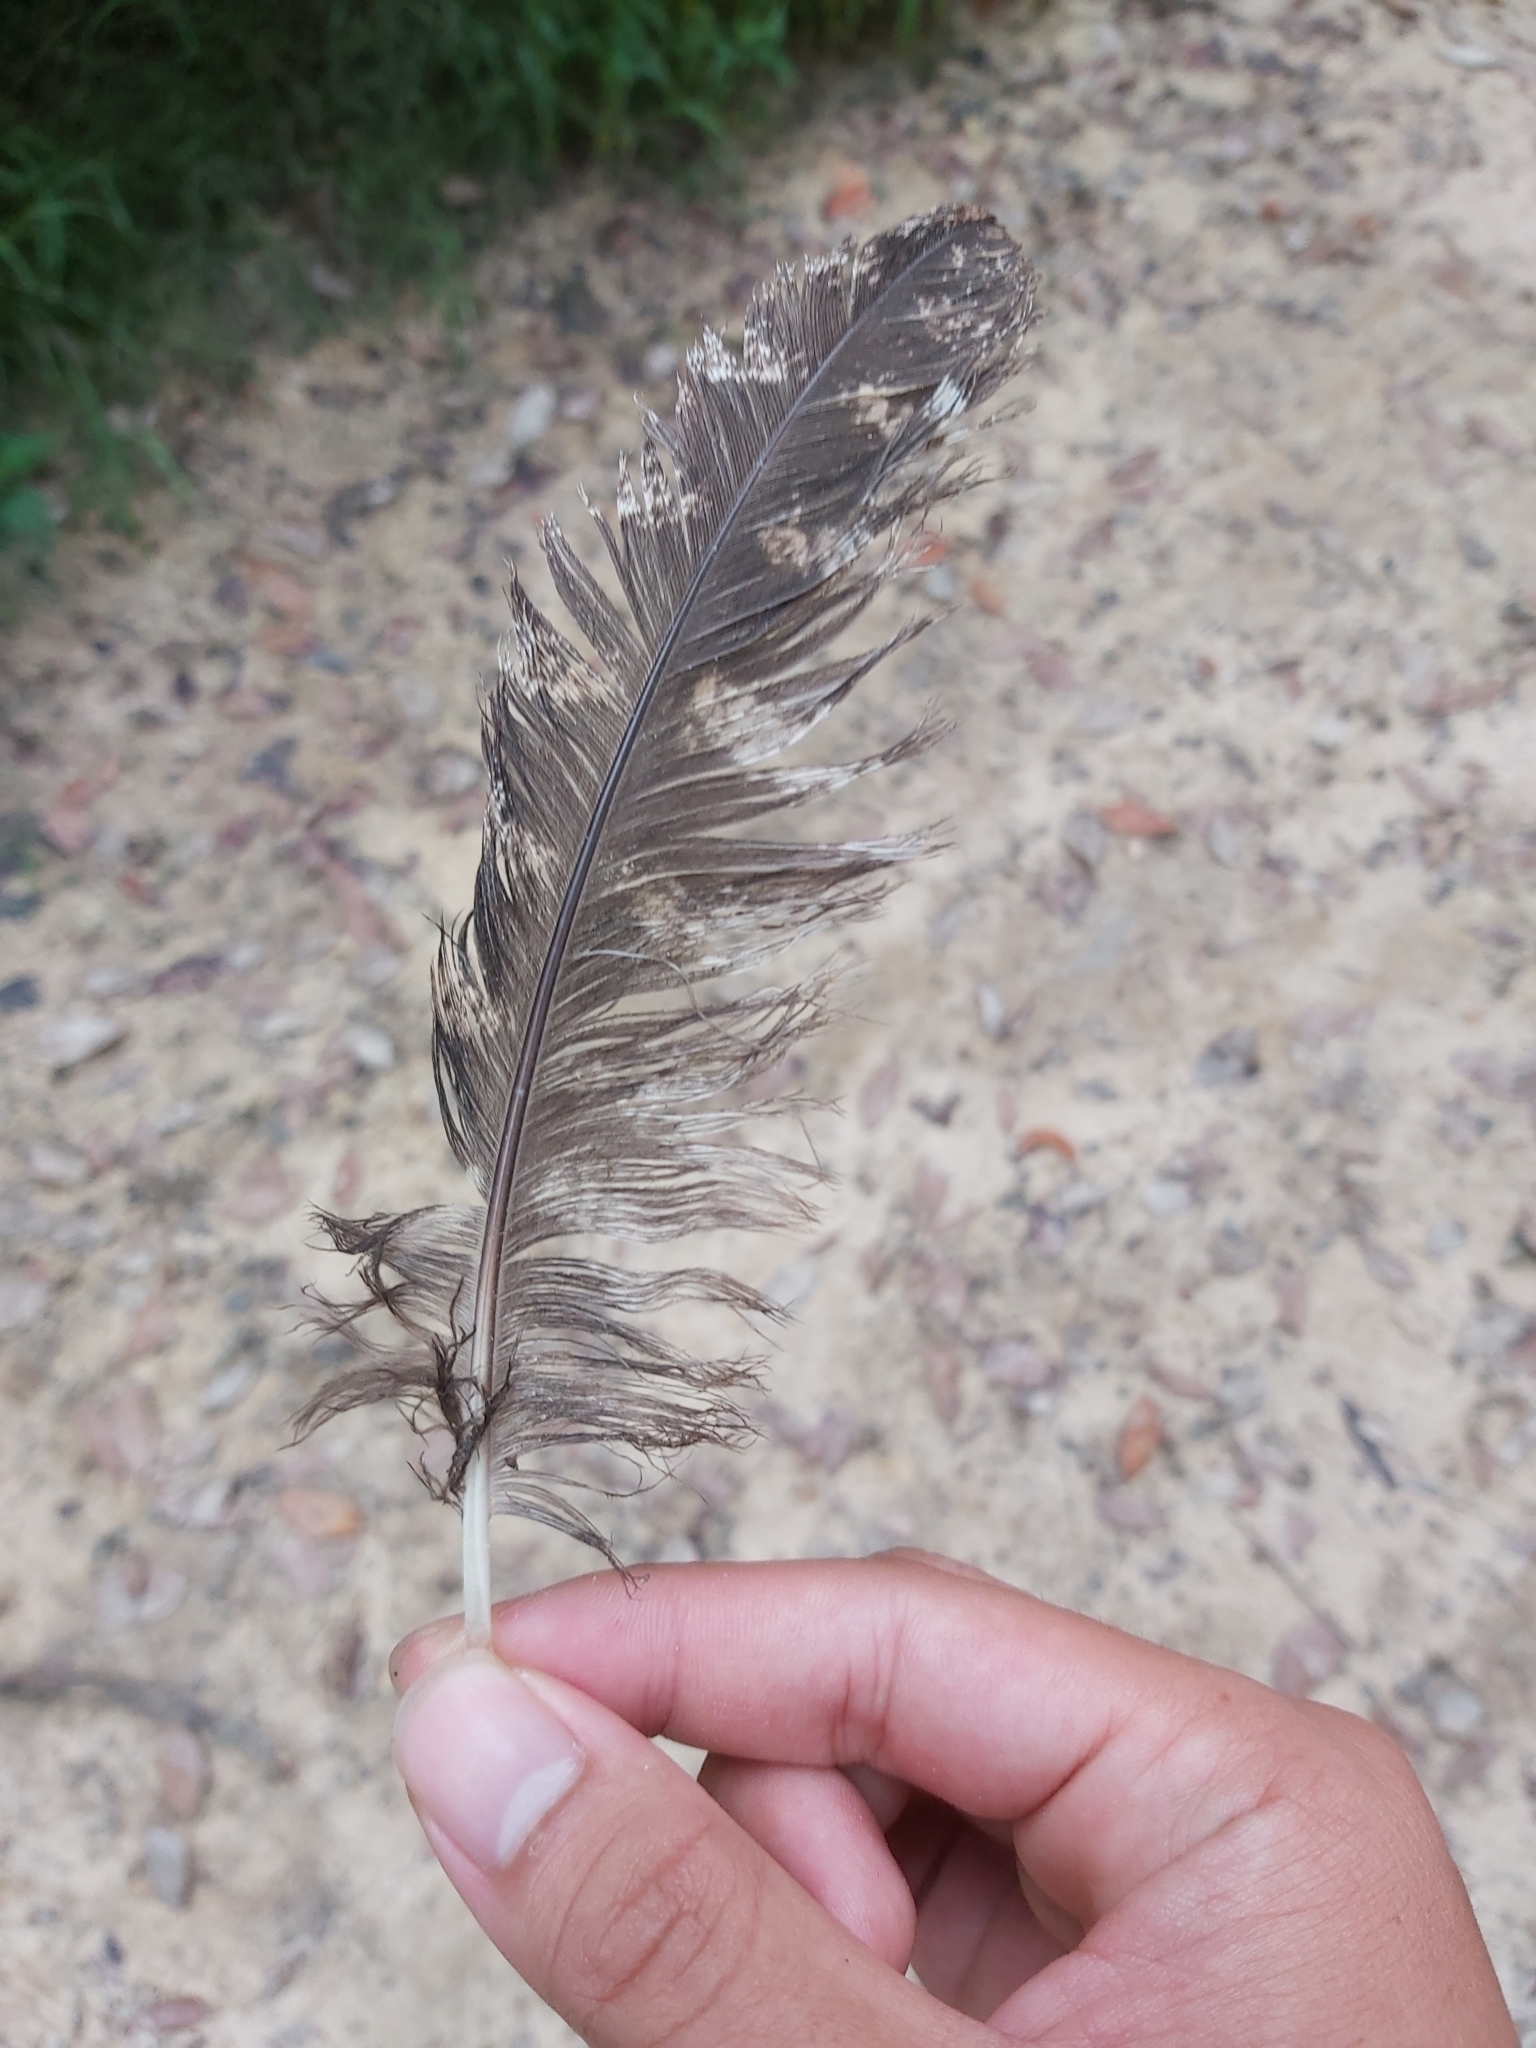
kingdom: Animalia
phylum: Chordata
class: Aves
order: Caprimulgiformes
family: Podargidae
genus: Podargus
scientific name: Podargus strigoides
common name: Tawny frogmouth
